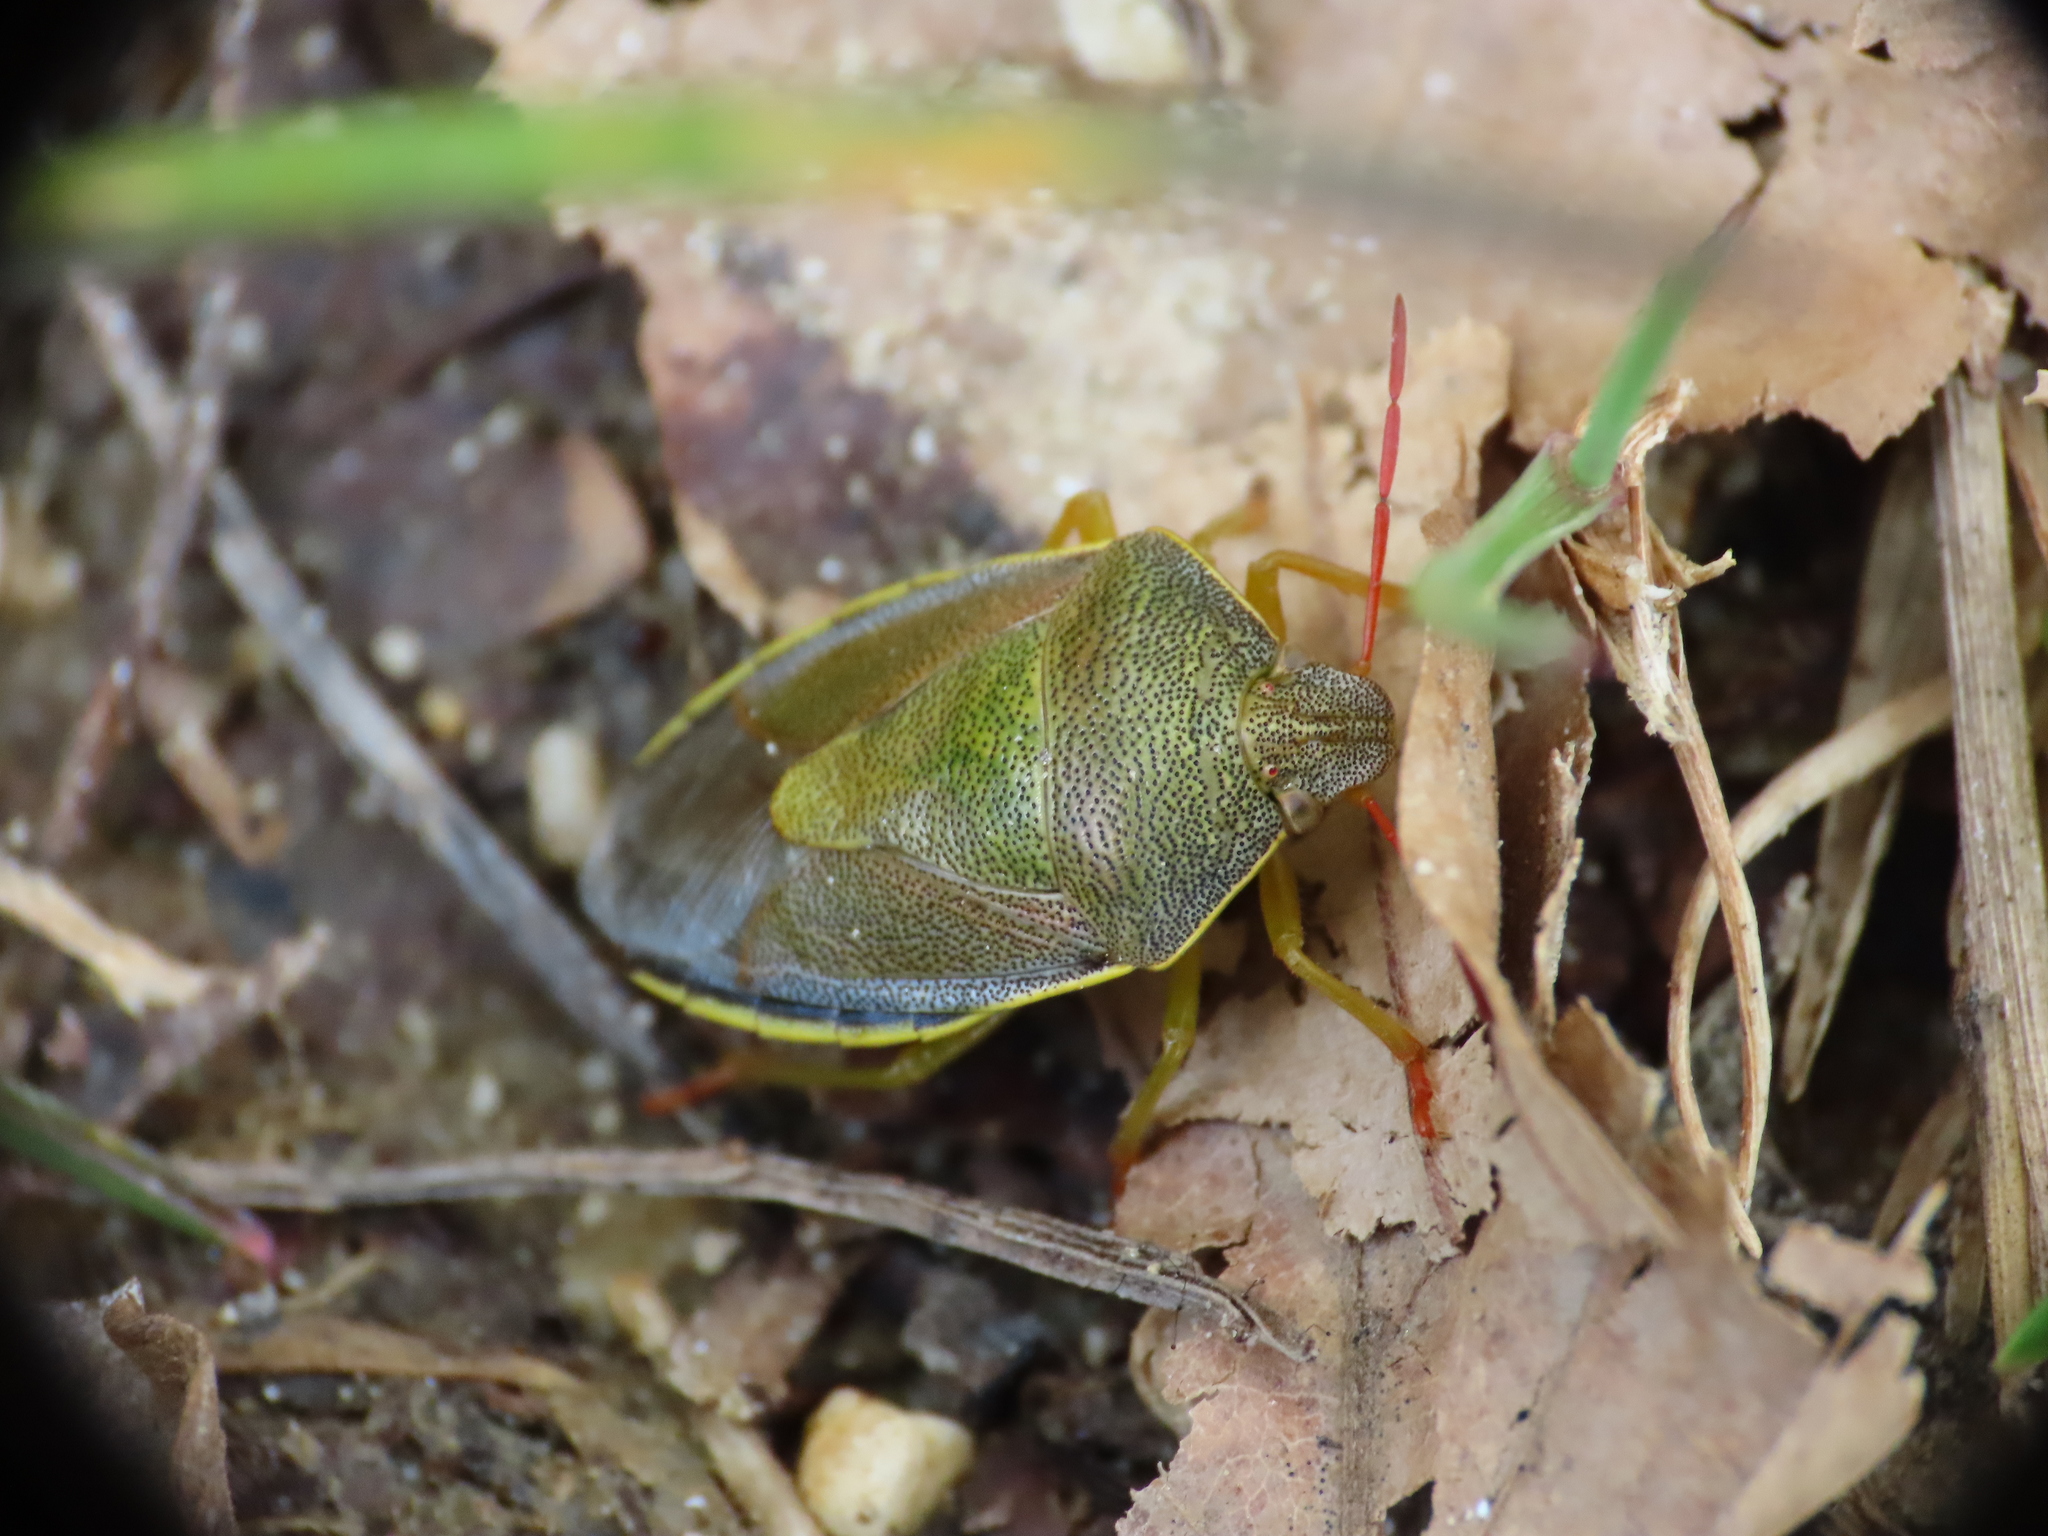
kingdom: Animalia
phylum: Arthropoda
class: Insecta
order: Hemiptera
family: Pentatomidae
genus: Piezodorus
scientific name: Piezodorus lituratus
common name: Stink bug
